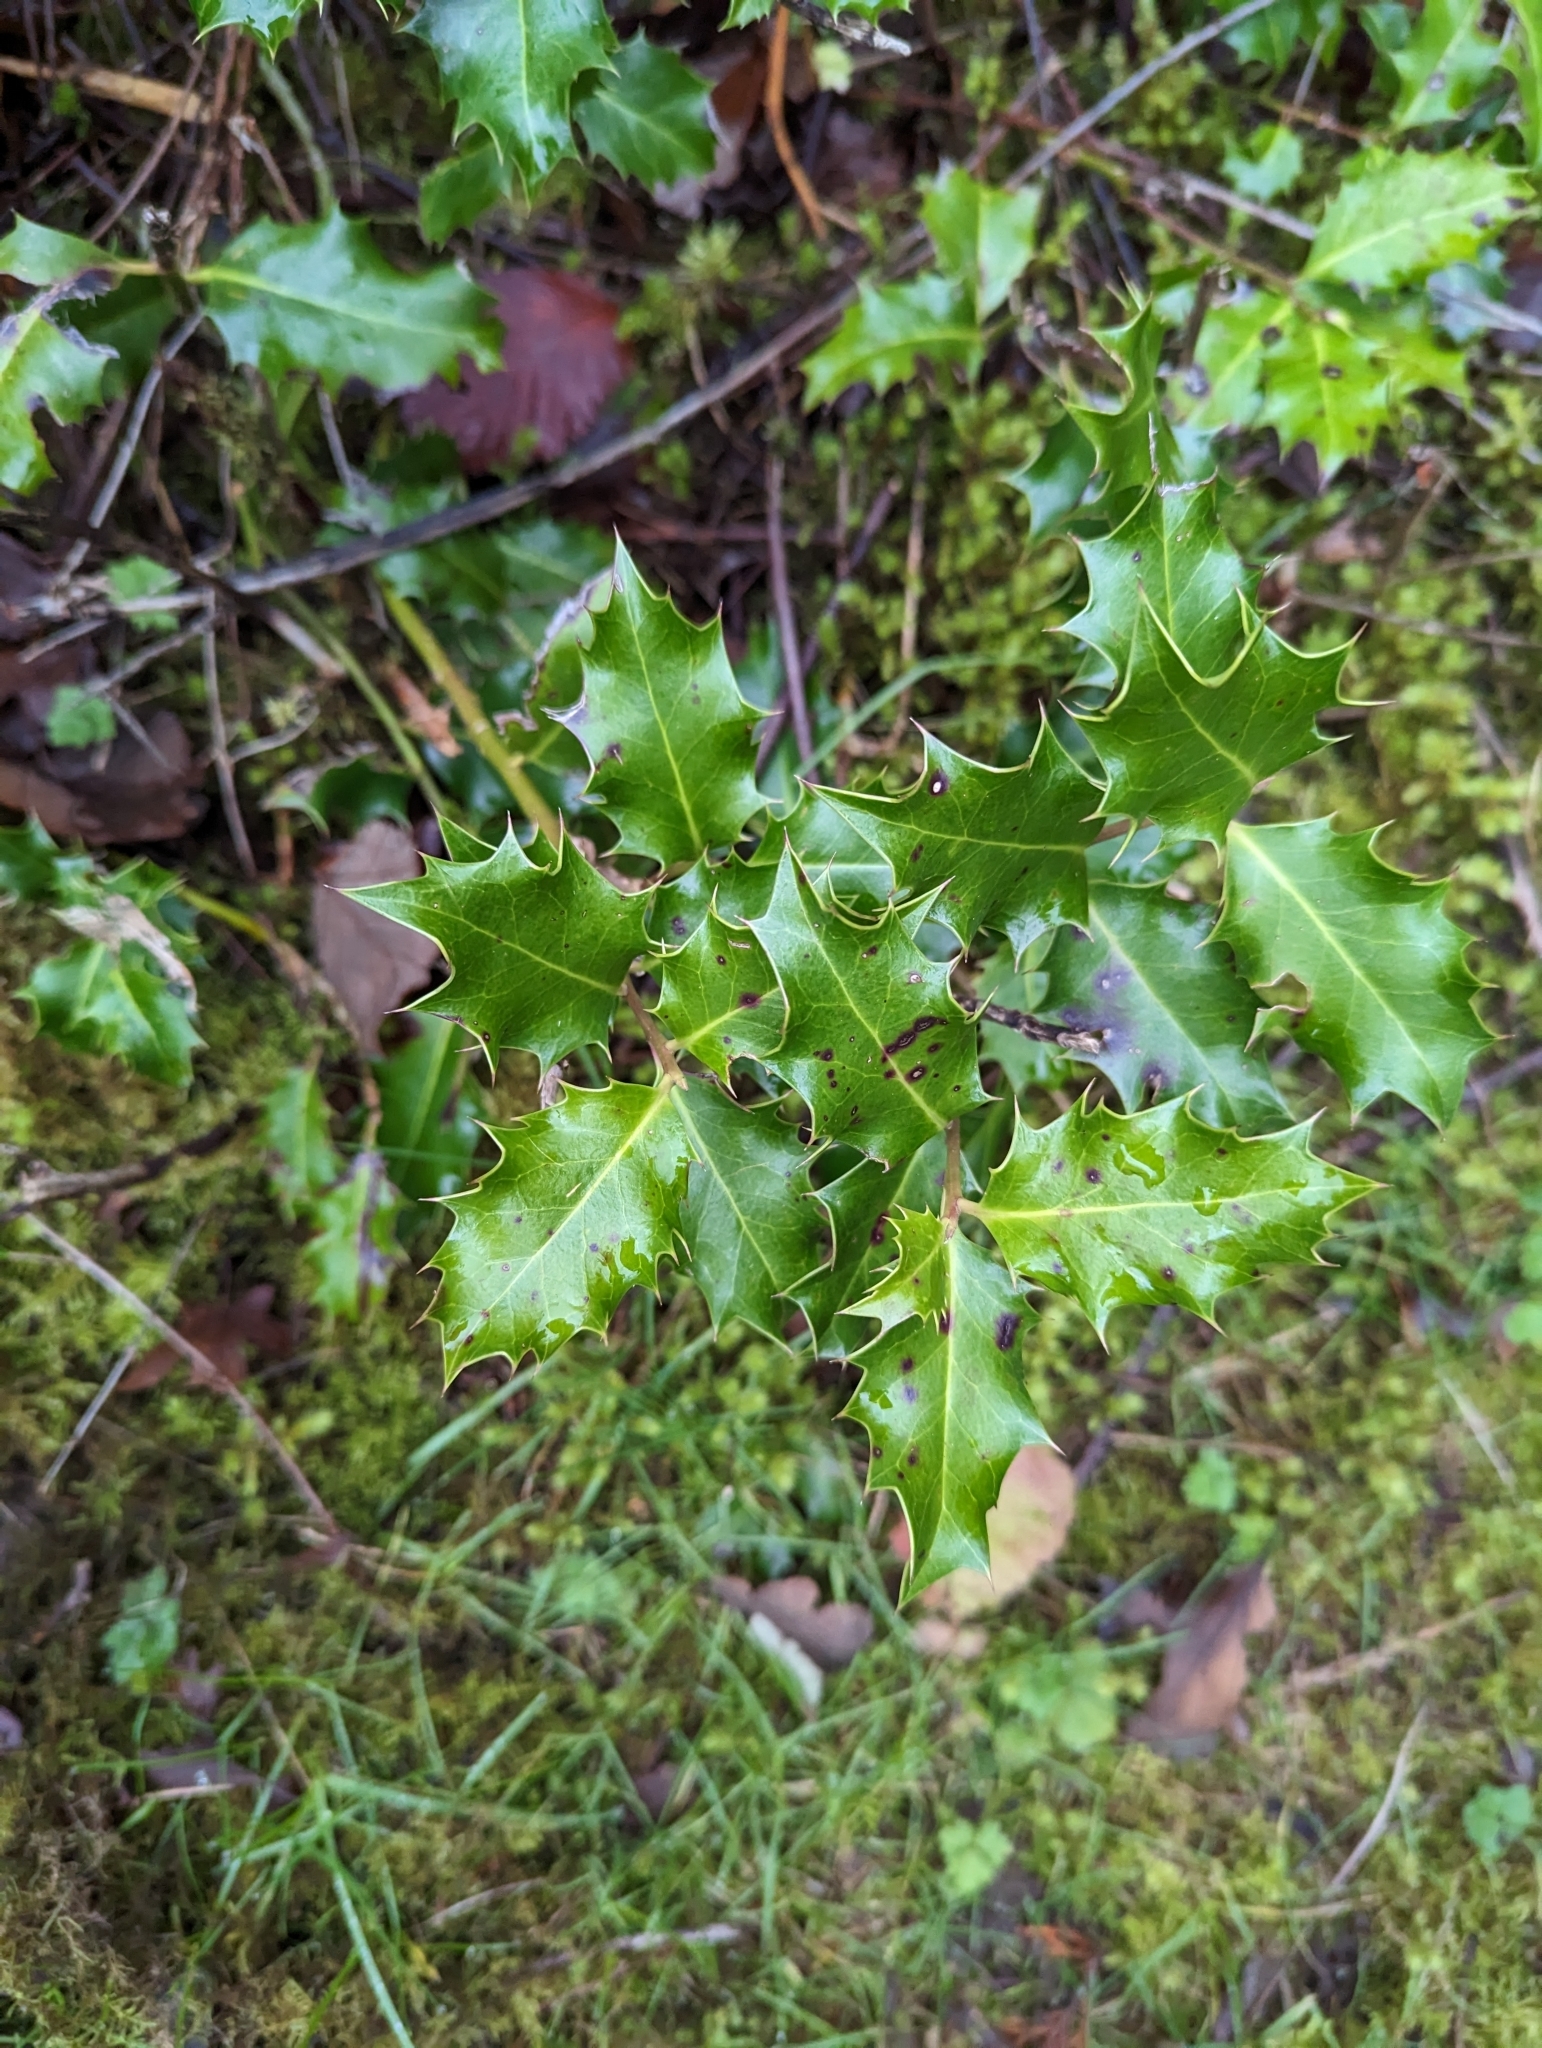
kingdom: Plantae
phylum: Tracheophyta
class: Magnoliopsida
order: Aquifoliales
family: Aquifoliaceae
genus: Ilex
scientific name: Ilex aquifolium
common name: English holly
